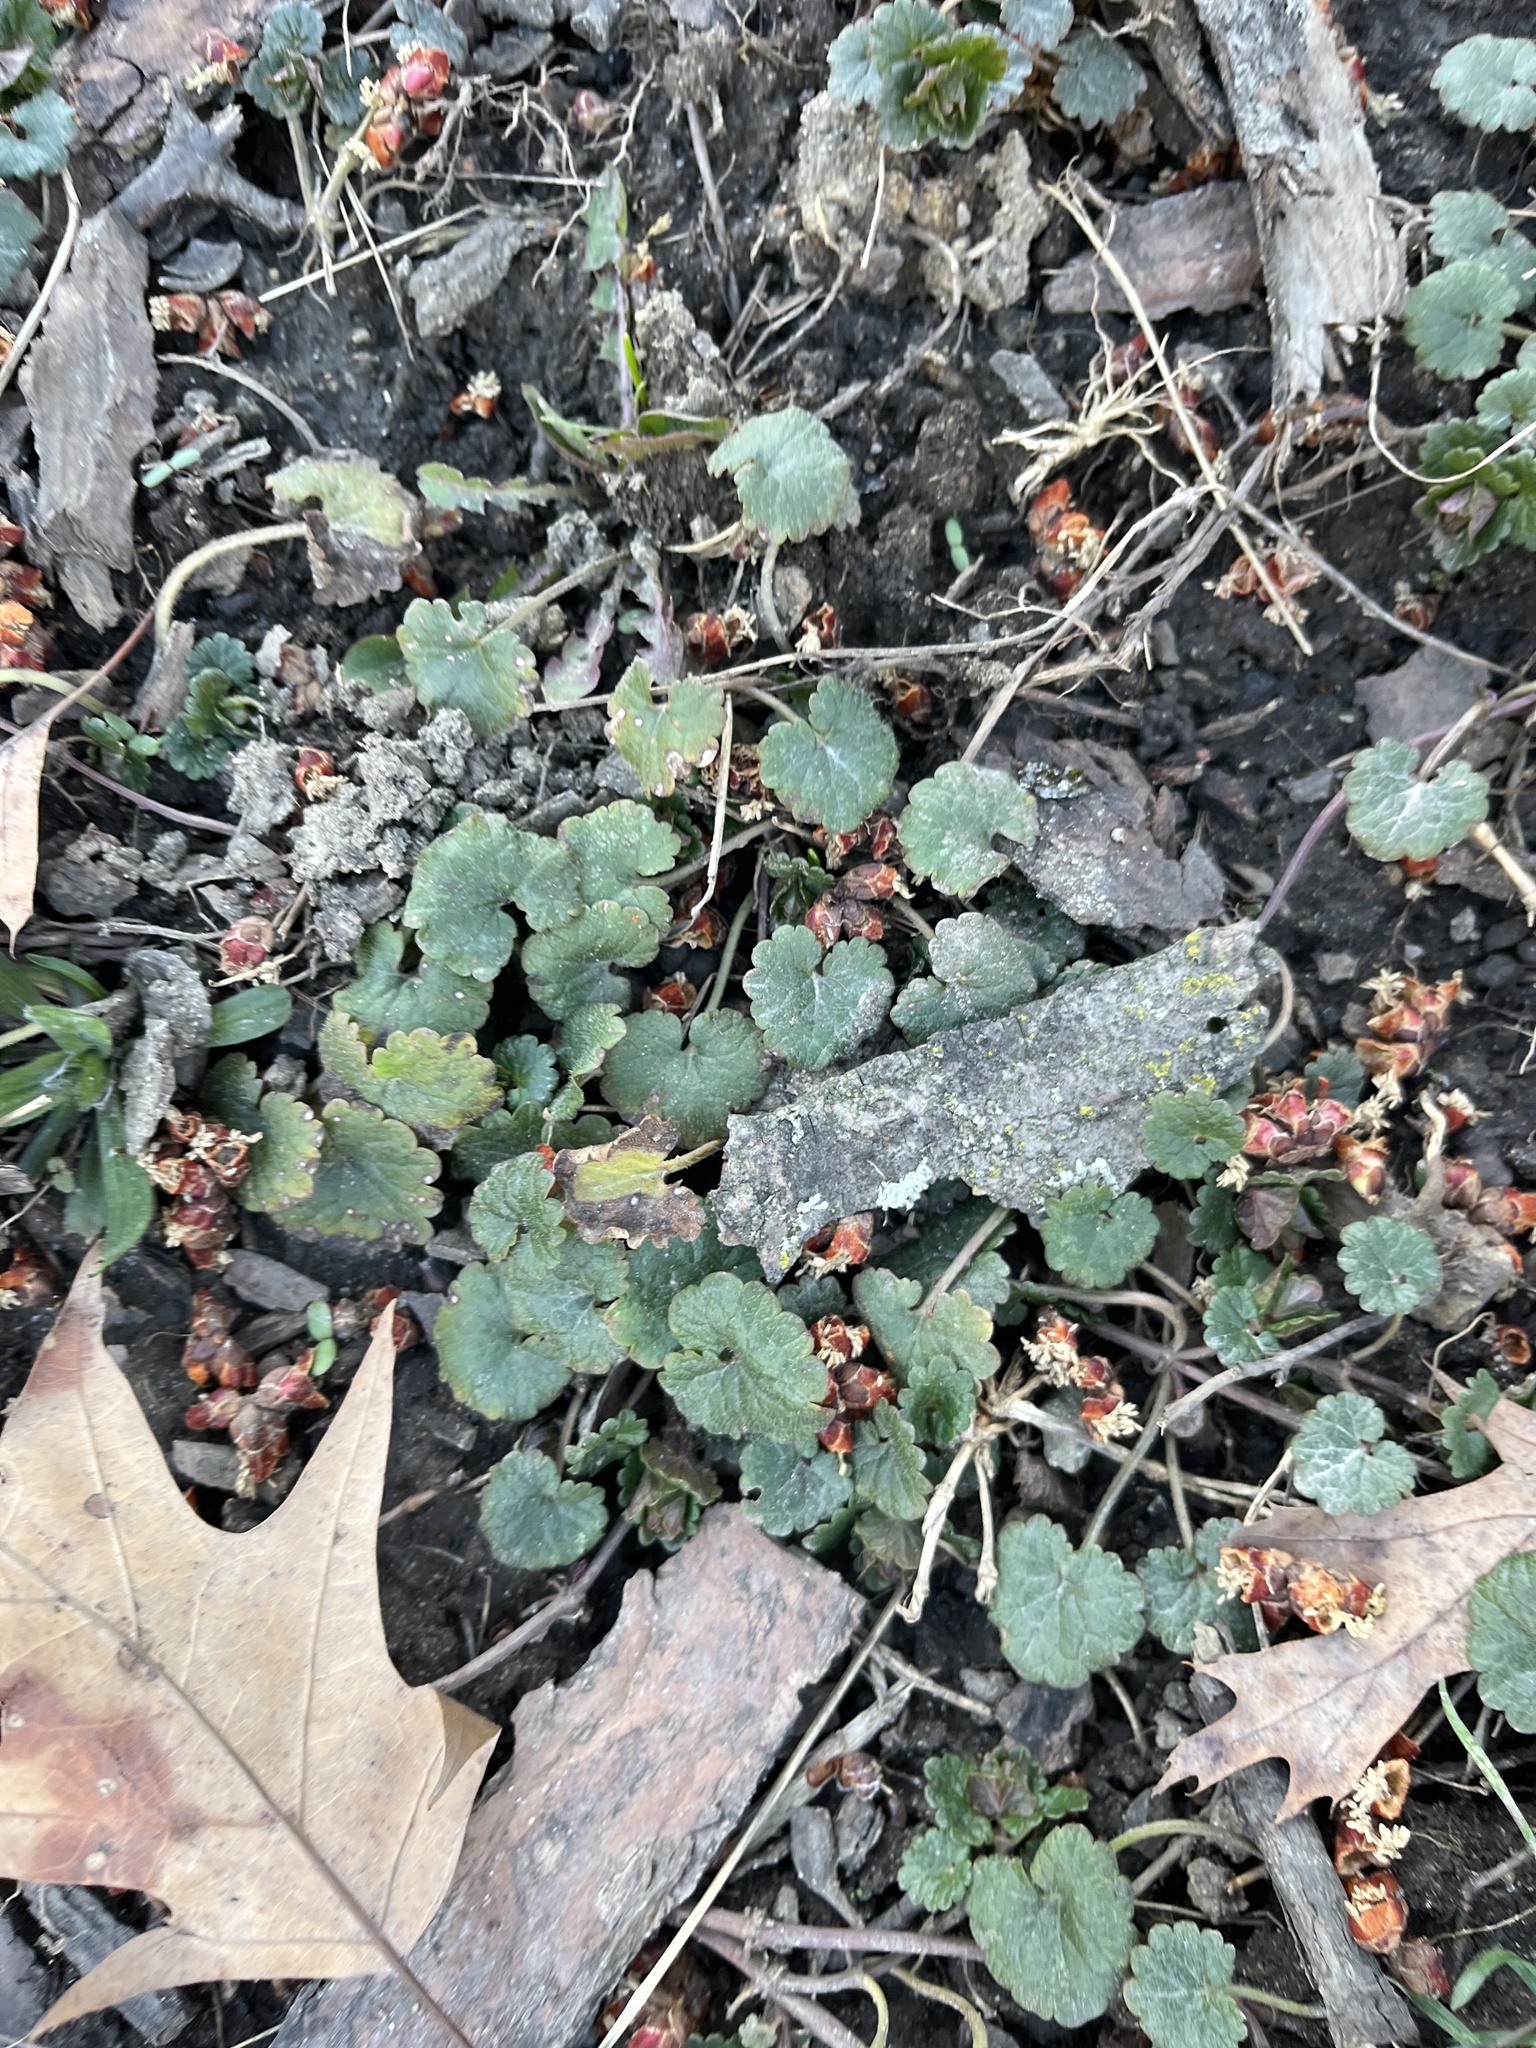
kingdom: Plantae
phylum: Tracheophyta
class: Magnoliopsida
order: Lamiales
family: Lamiaceae
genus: Glechoma
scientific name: Glechoma hederacea
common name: Ground ivy
